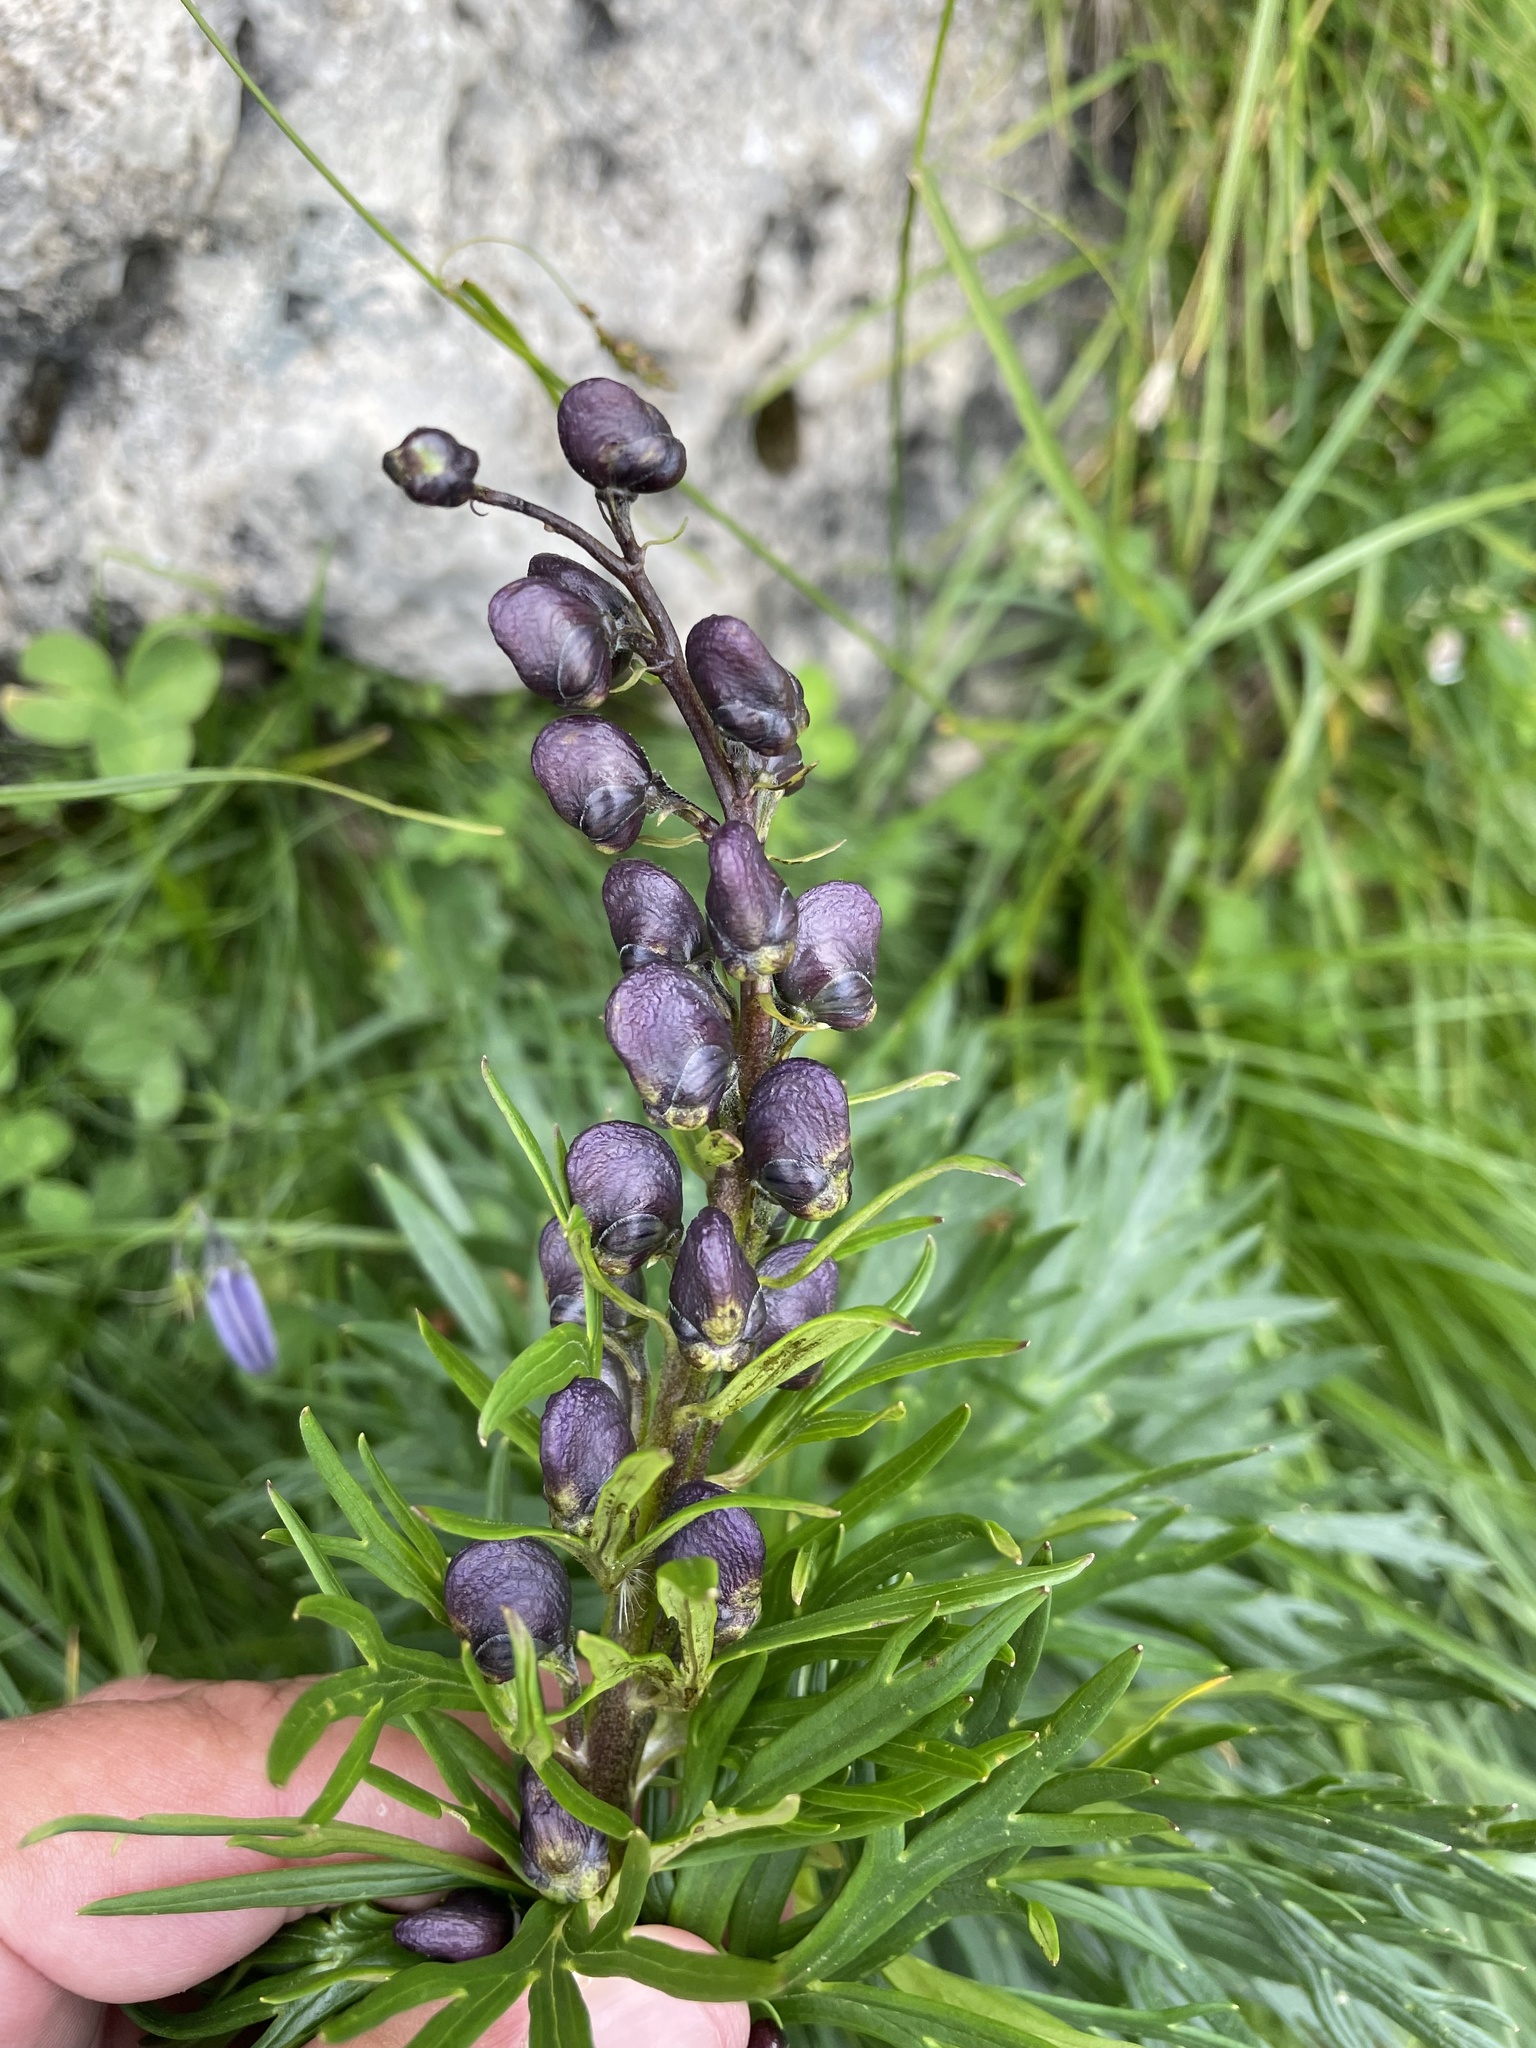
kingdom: Plantae
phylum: Tracheophyta
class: Magnoliopsida
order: Ranunculales
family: Ranunculaceae
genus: Aconitum
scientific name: Aconitum tauricum
